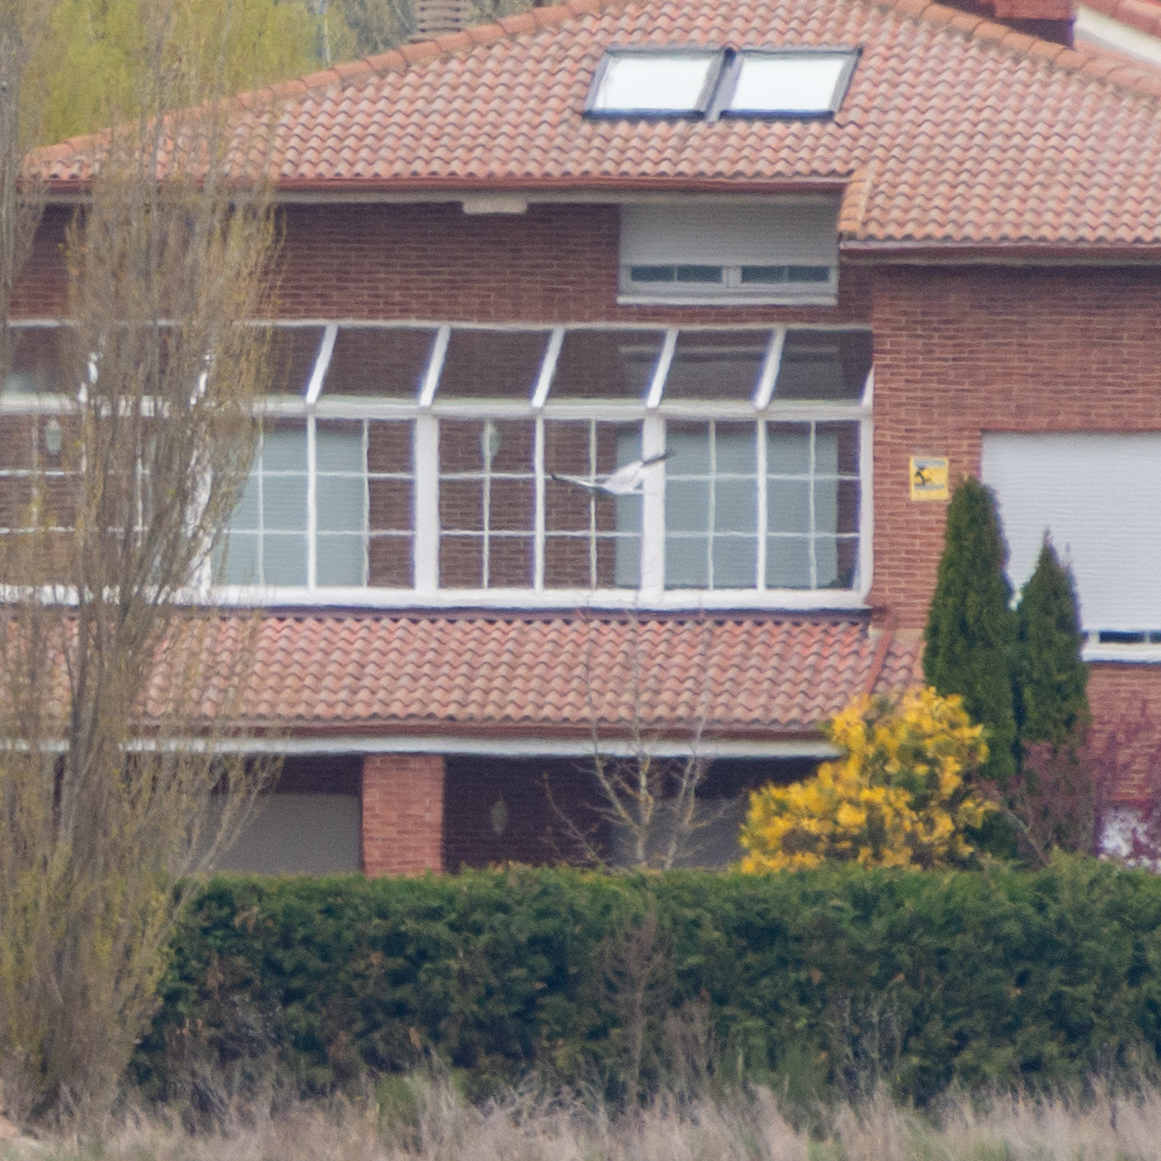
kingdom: Animalia
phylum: Chordata
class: Aves
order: Accipitriformes
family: Accipitridae
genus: Circus
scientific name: Circus pygargus
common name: Montagu's harrier
